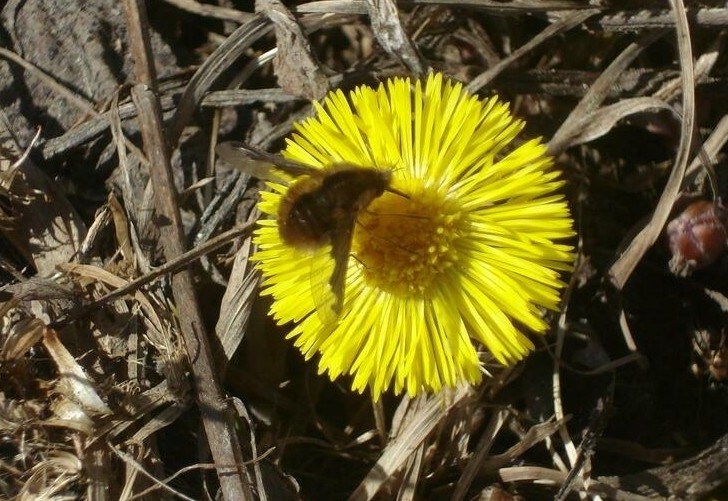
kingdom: Animalia
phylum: Arthropoda
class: Insecta
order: Diptera
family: Bombyliidae
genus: Bombylius
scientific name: Bombylius major
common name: Bee fly
